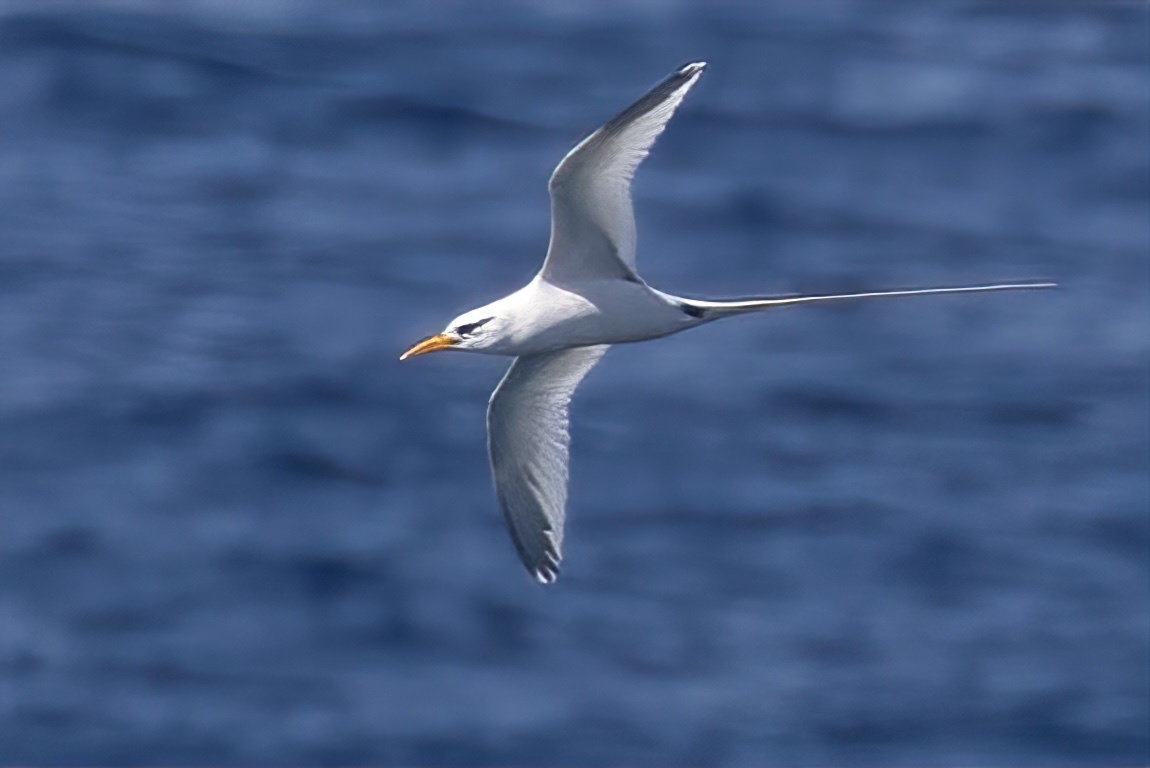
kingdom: Animalia
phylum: Chordata
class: Aves
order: Phaethontiformes
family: Phaethontidae
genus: Phaethon
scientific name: Phaethon lepturus
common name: White-tailed tropicbird
